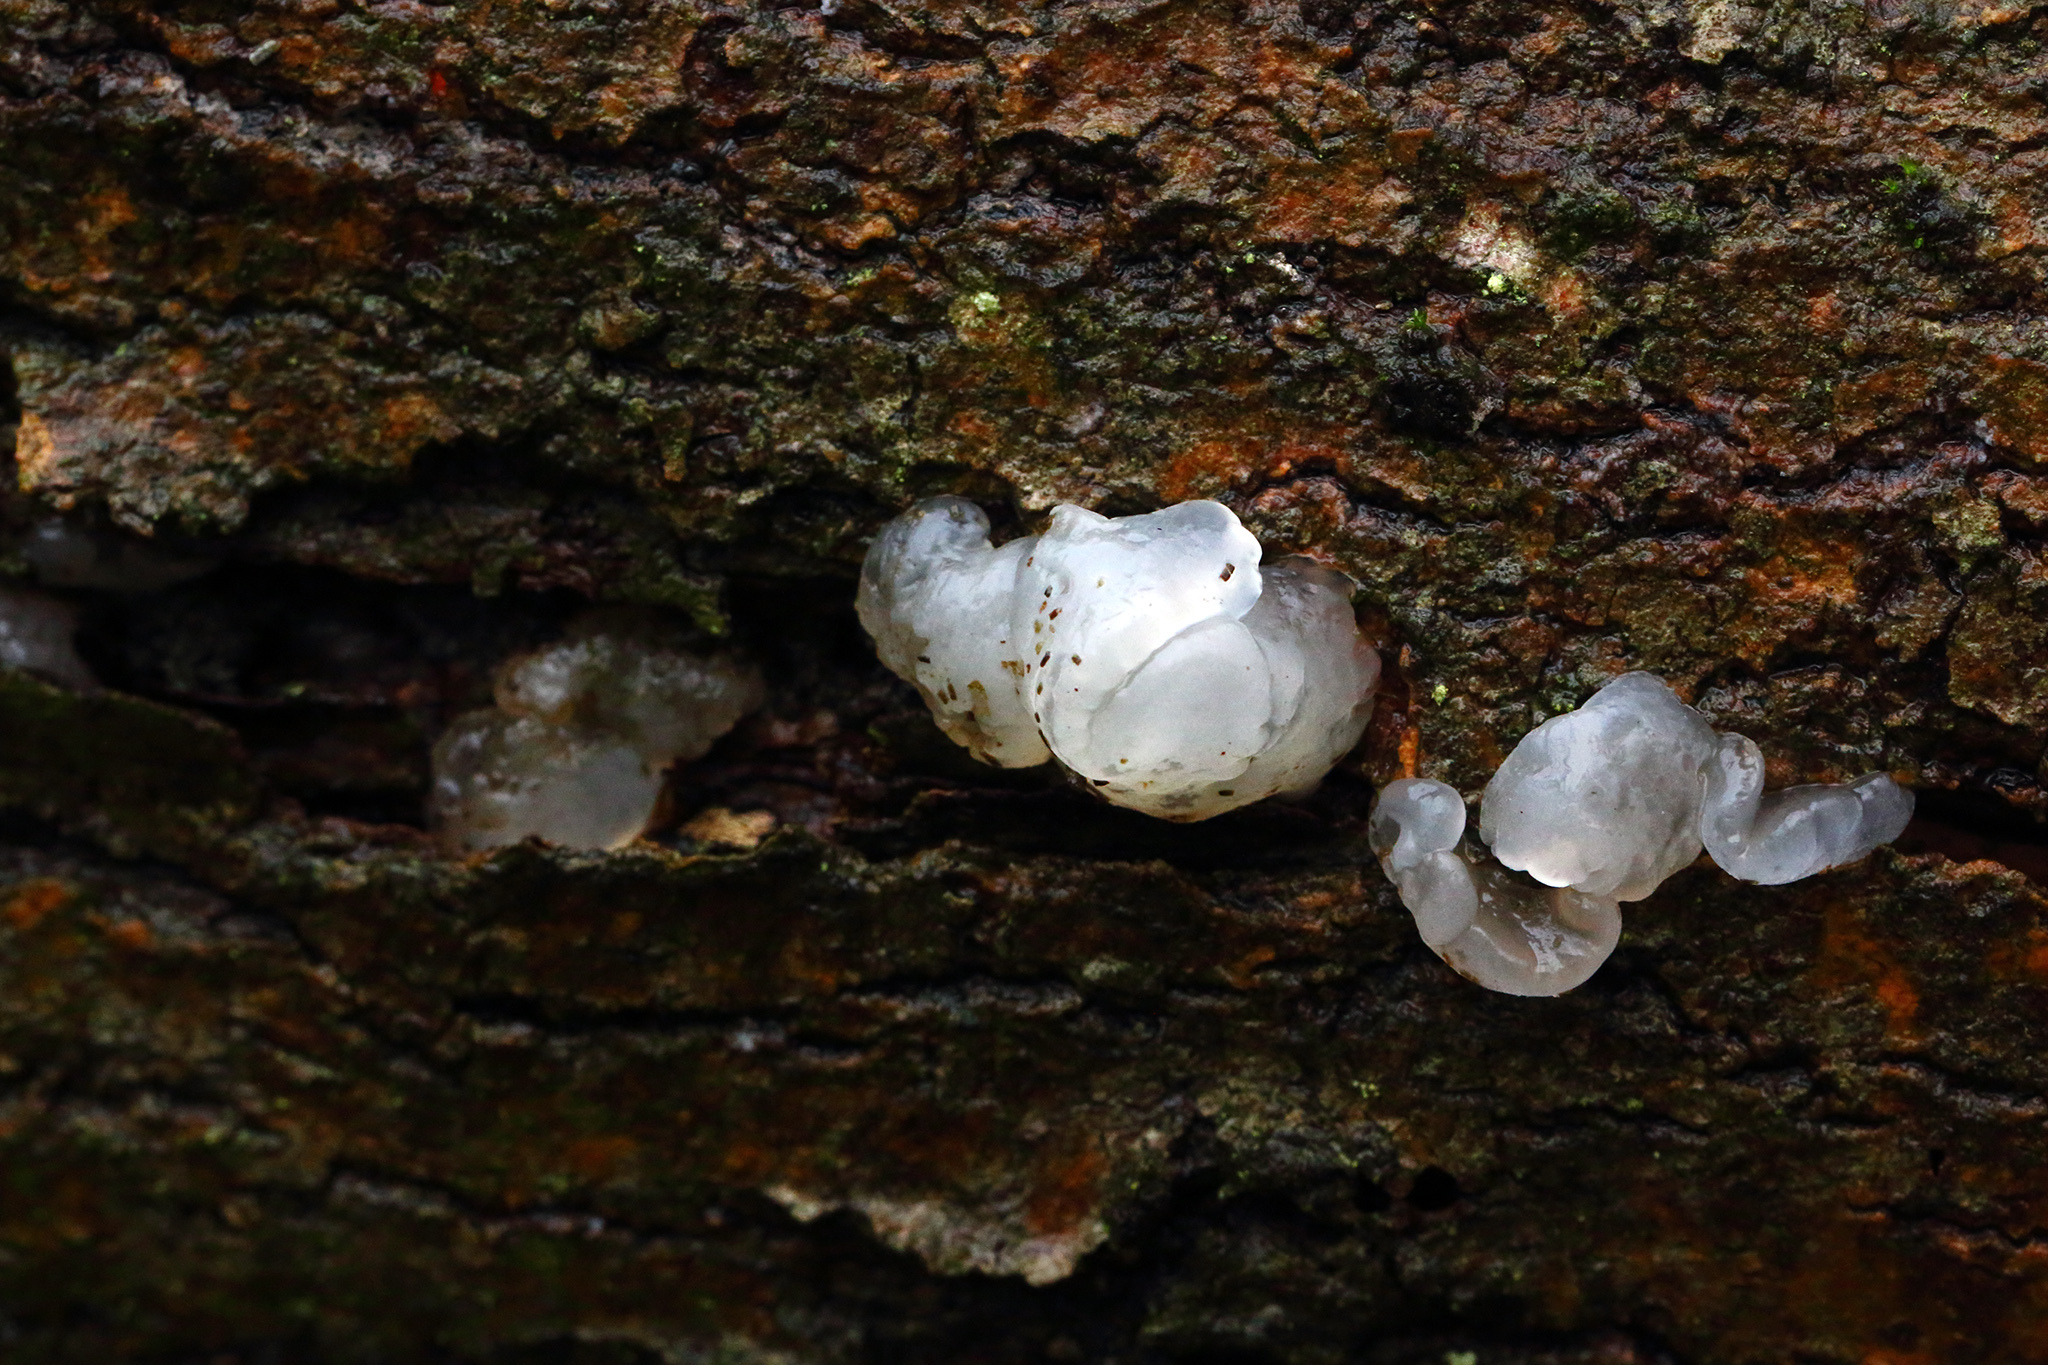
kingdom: Fungi
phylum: Basidiomycota
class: Agaricomycetes
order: Auriculariales
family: Hyaloriaceae
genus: Myxarium
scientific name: Myxarium nucleatum
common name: Crystal brain fungus
